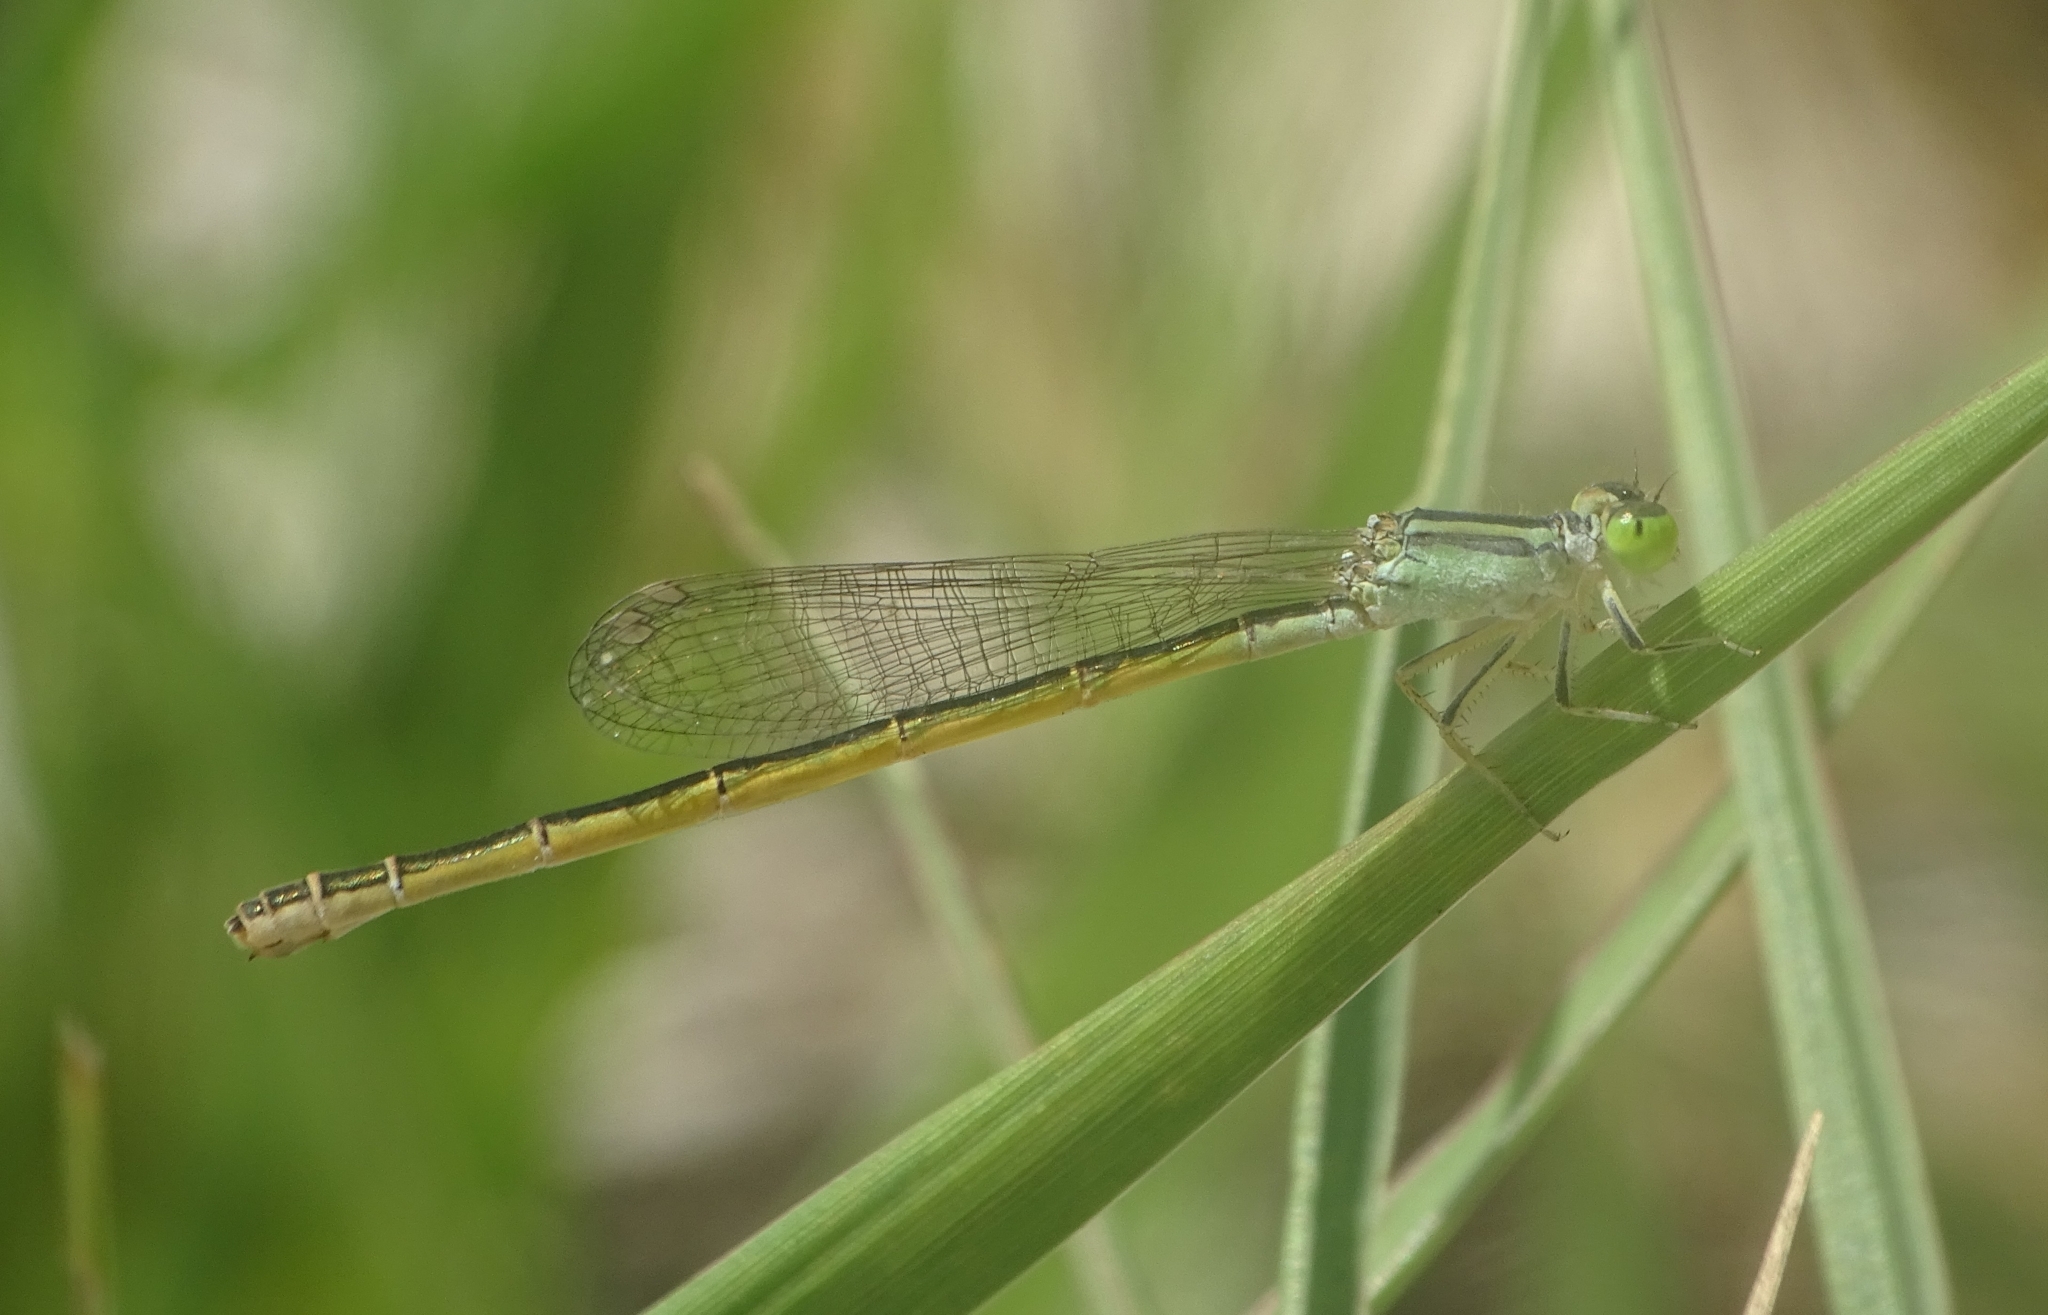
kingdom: Animalia
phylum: Arthropoda
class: Insecta
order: Odonata
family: Coenagrionidae
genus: Ischnura
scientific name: Ischnura rubilio
